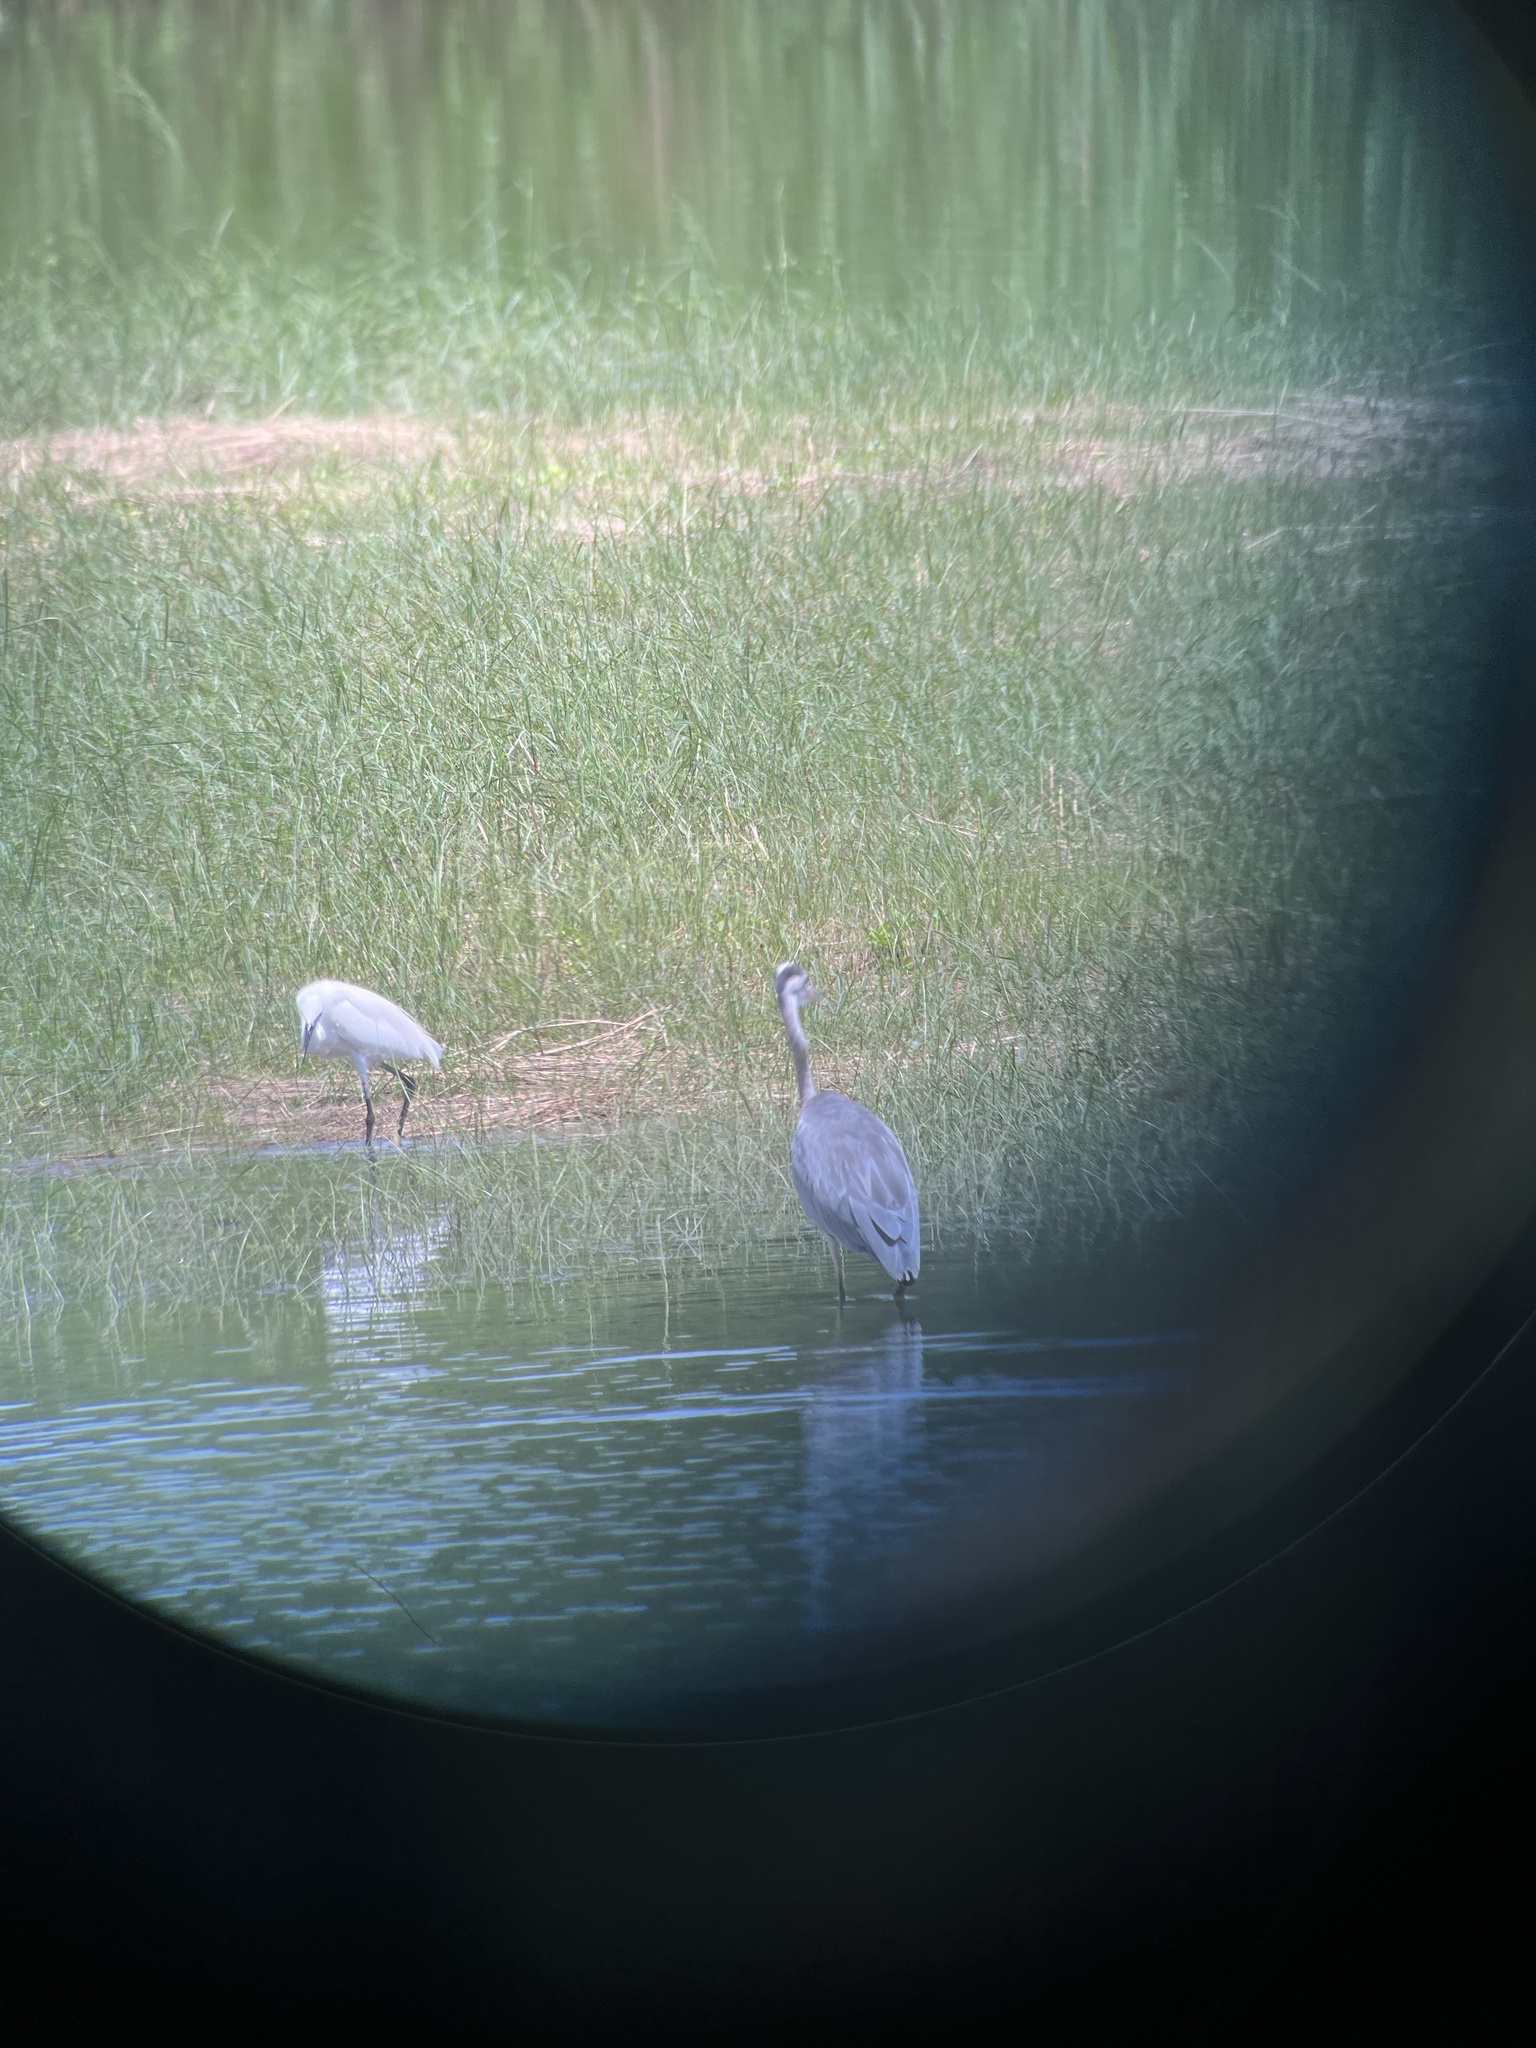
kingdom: Animalia
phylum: Chordata
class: Aves
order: Pelecaniformes
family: Ardeidae
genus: Egretta
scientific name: Egretta garzetta
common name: Little egret
